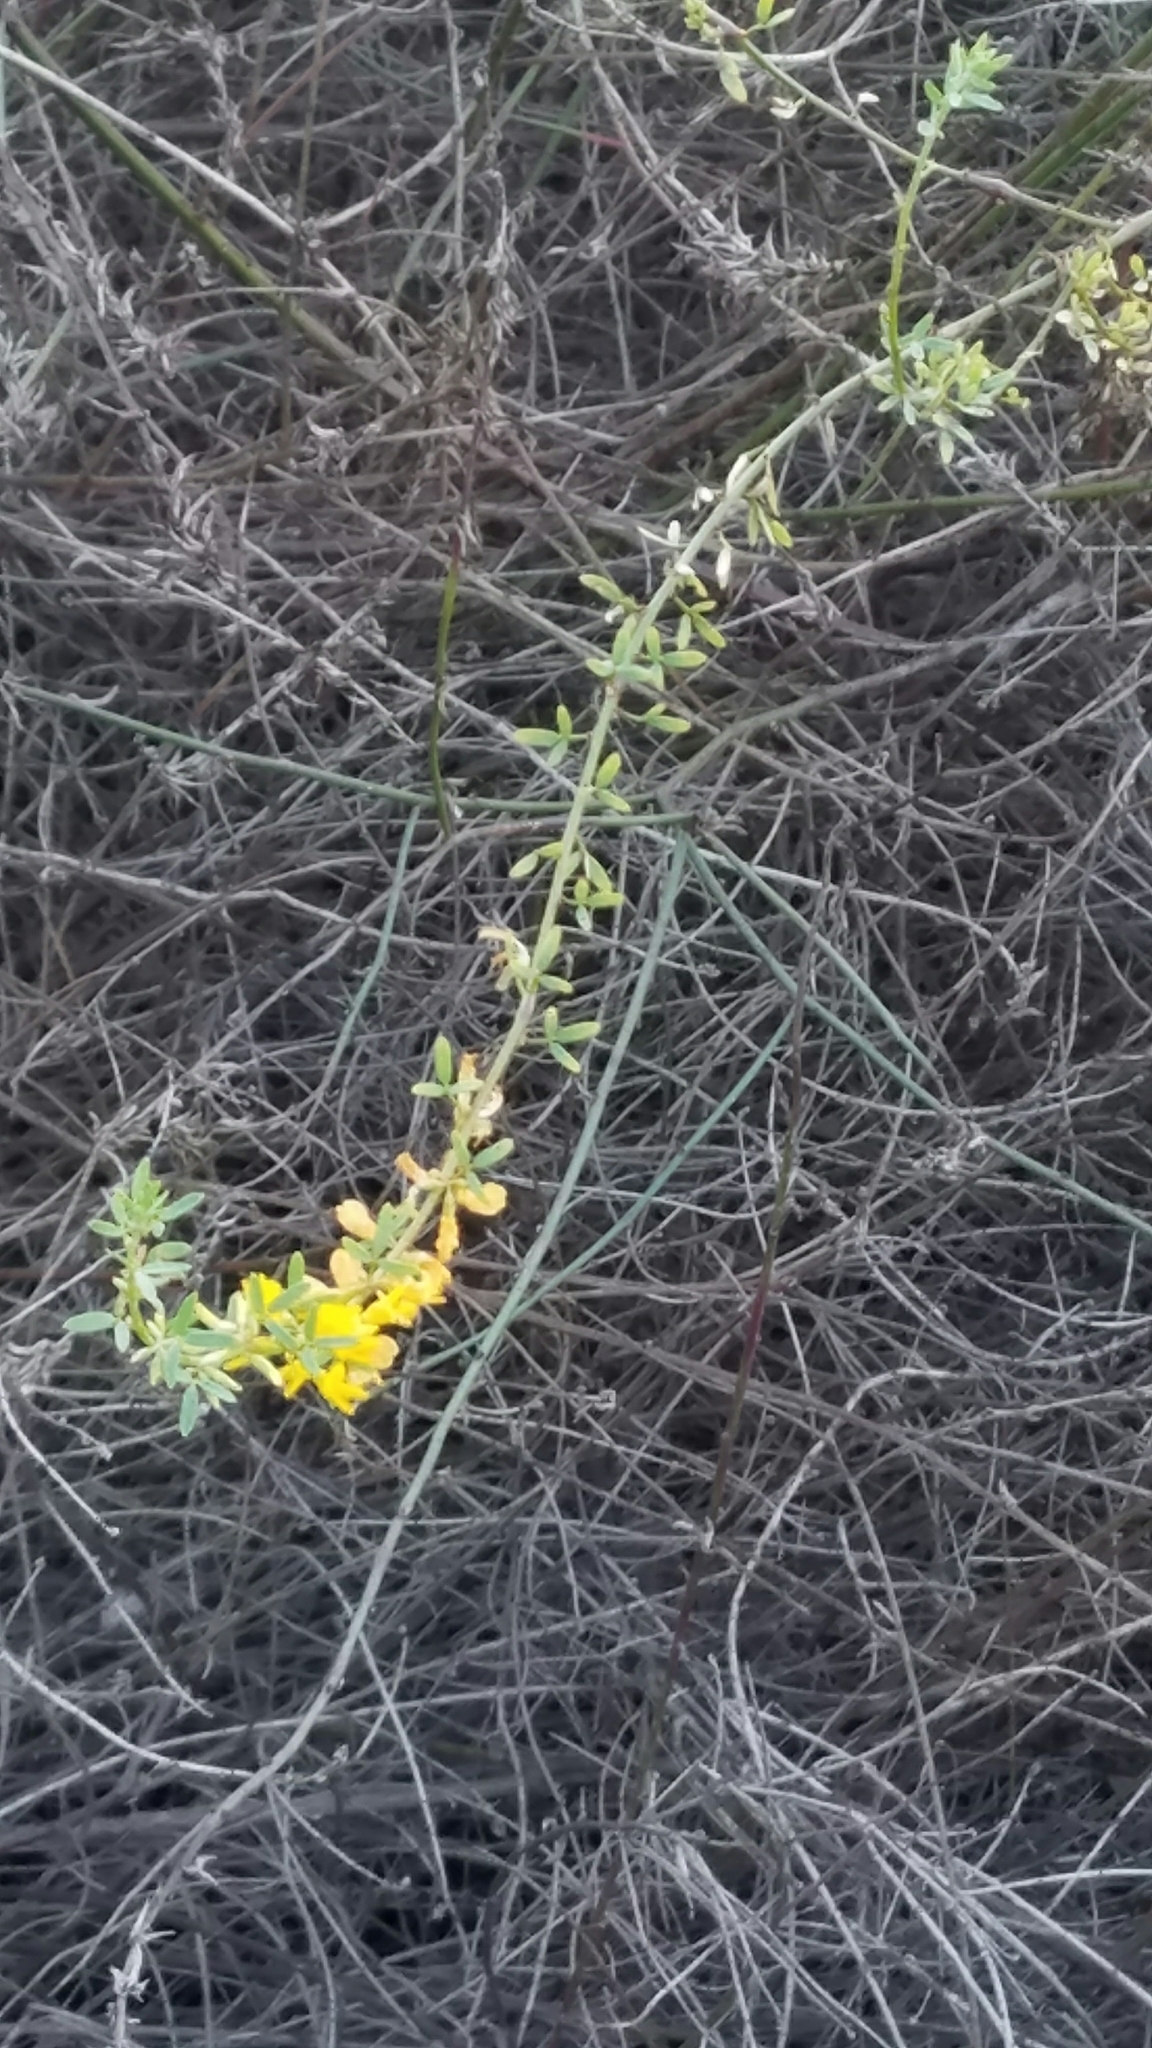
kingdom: Plantae
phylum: Tracheophyta
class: Magnoliopsida
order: Fabales
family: Fabaceae
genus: Acmispon
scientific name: Acmispon glaber
